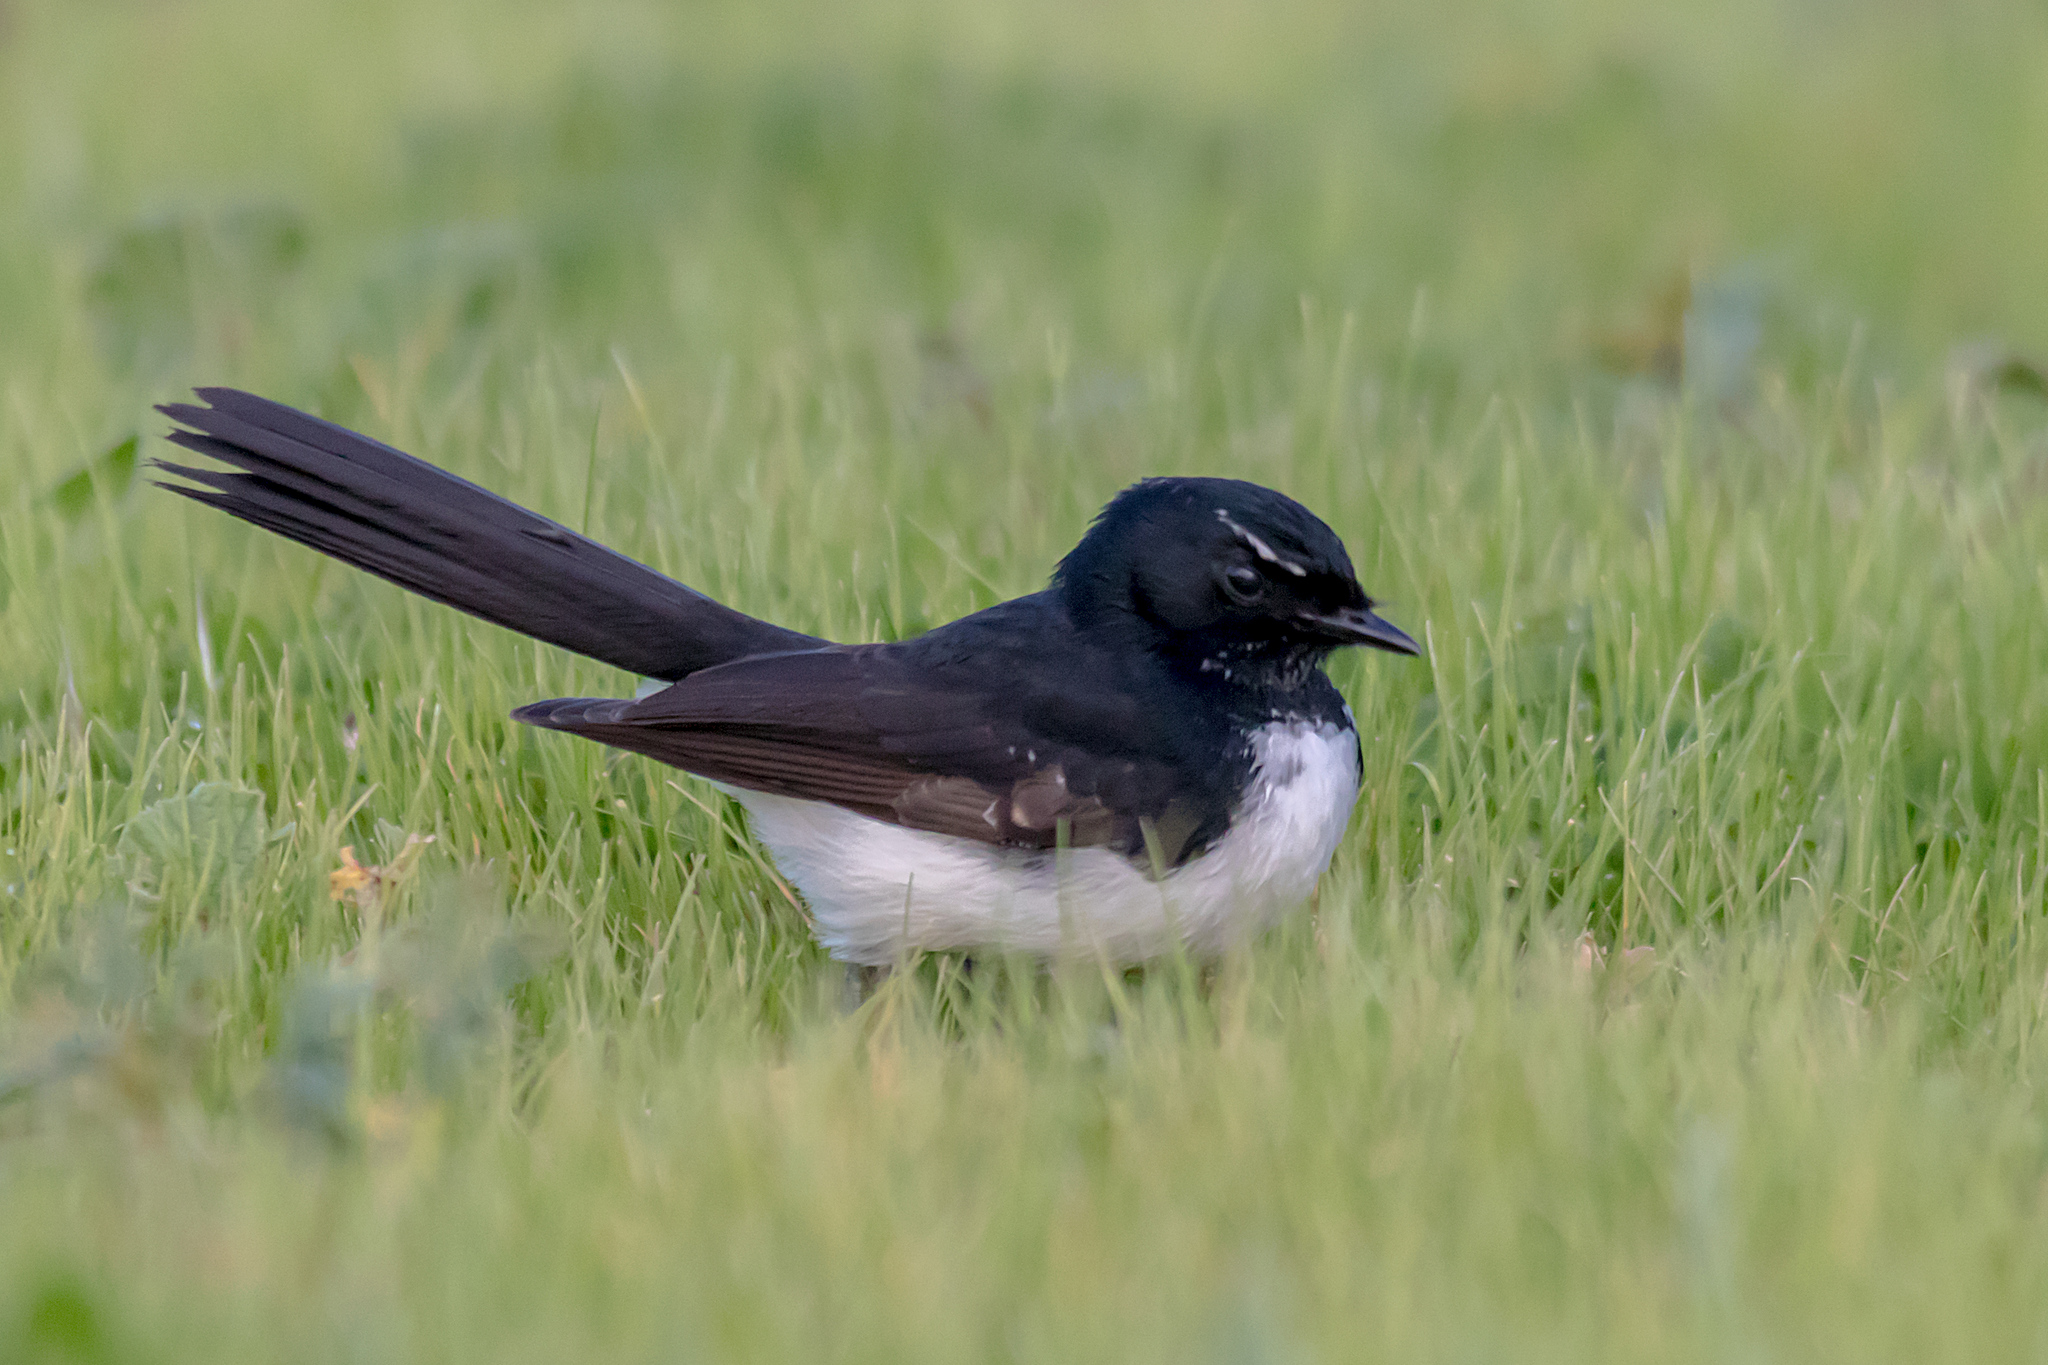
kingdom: Animalia
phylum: Chordata
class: Aves
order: Passeriformes
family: Rhipiduridae
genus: Rhipidura
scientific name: Rhipidura leucophrys
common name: Willie wagtail
